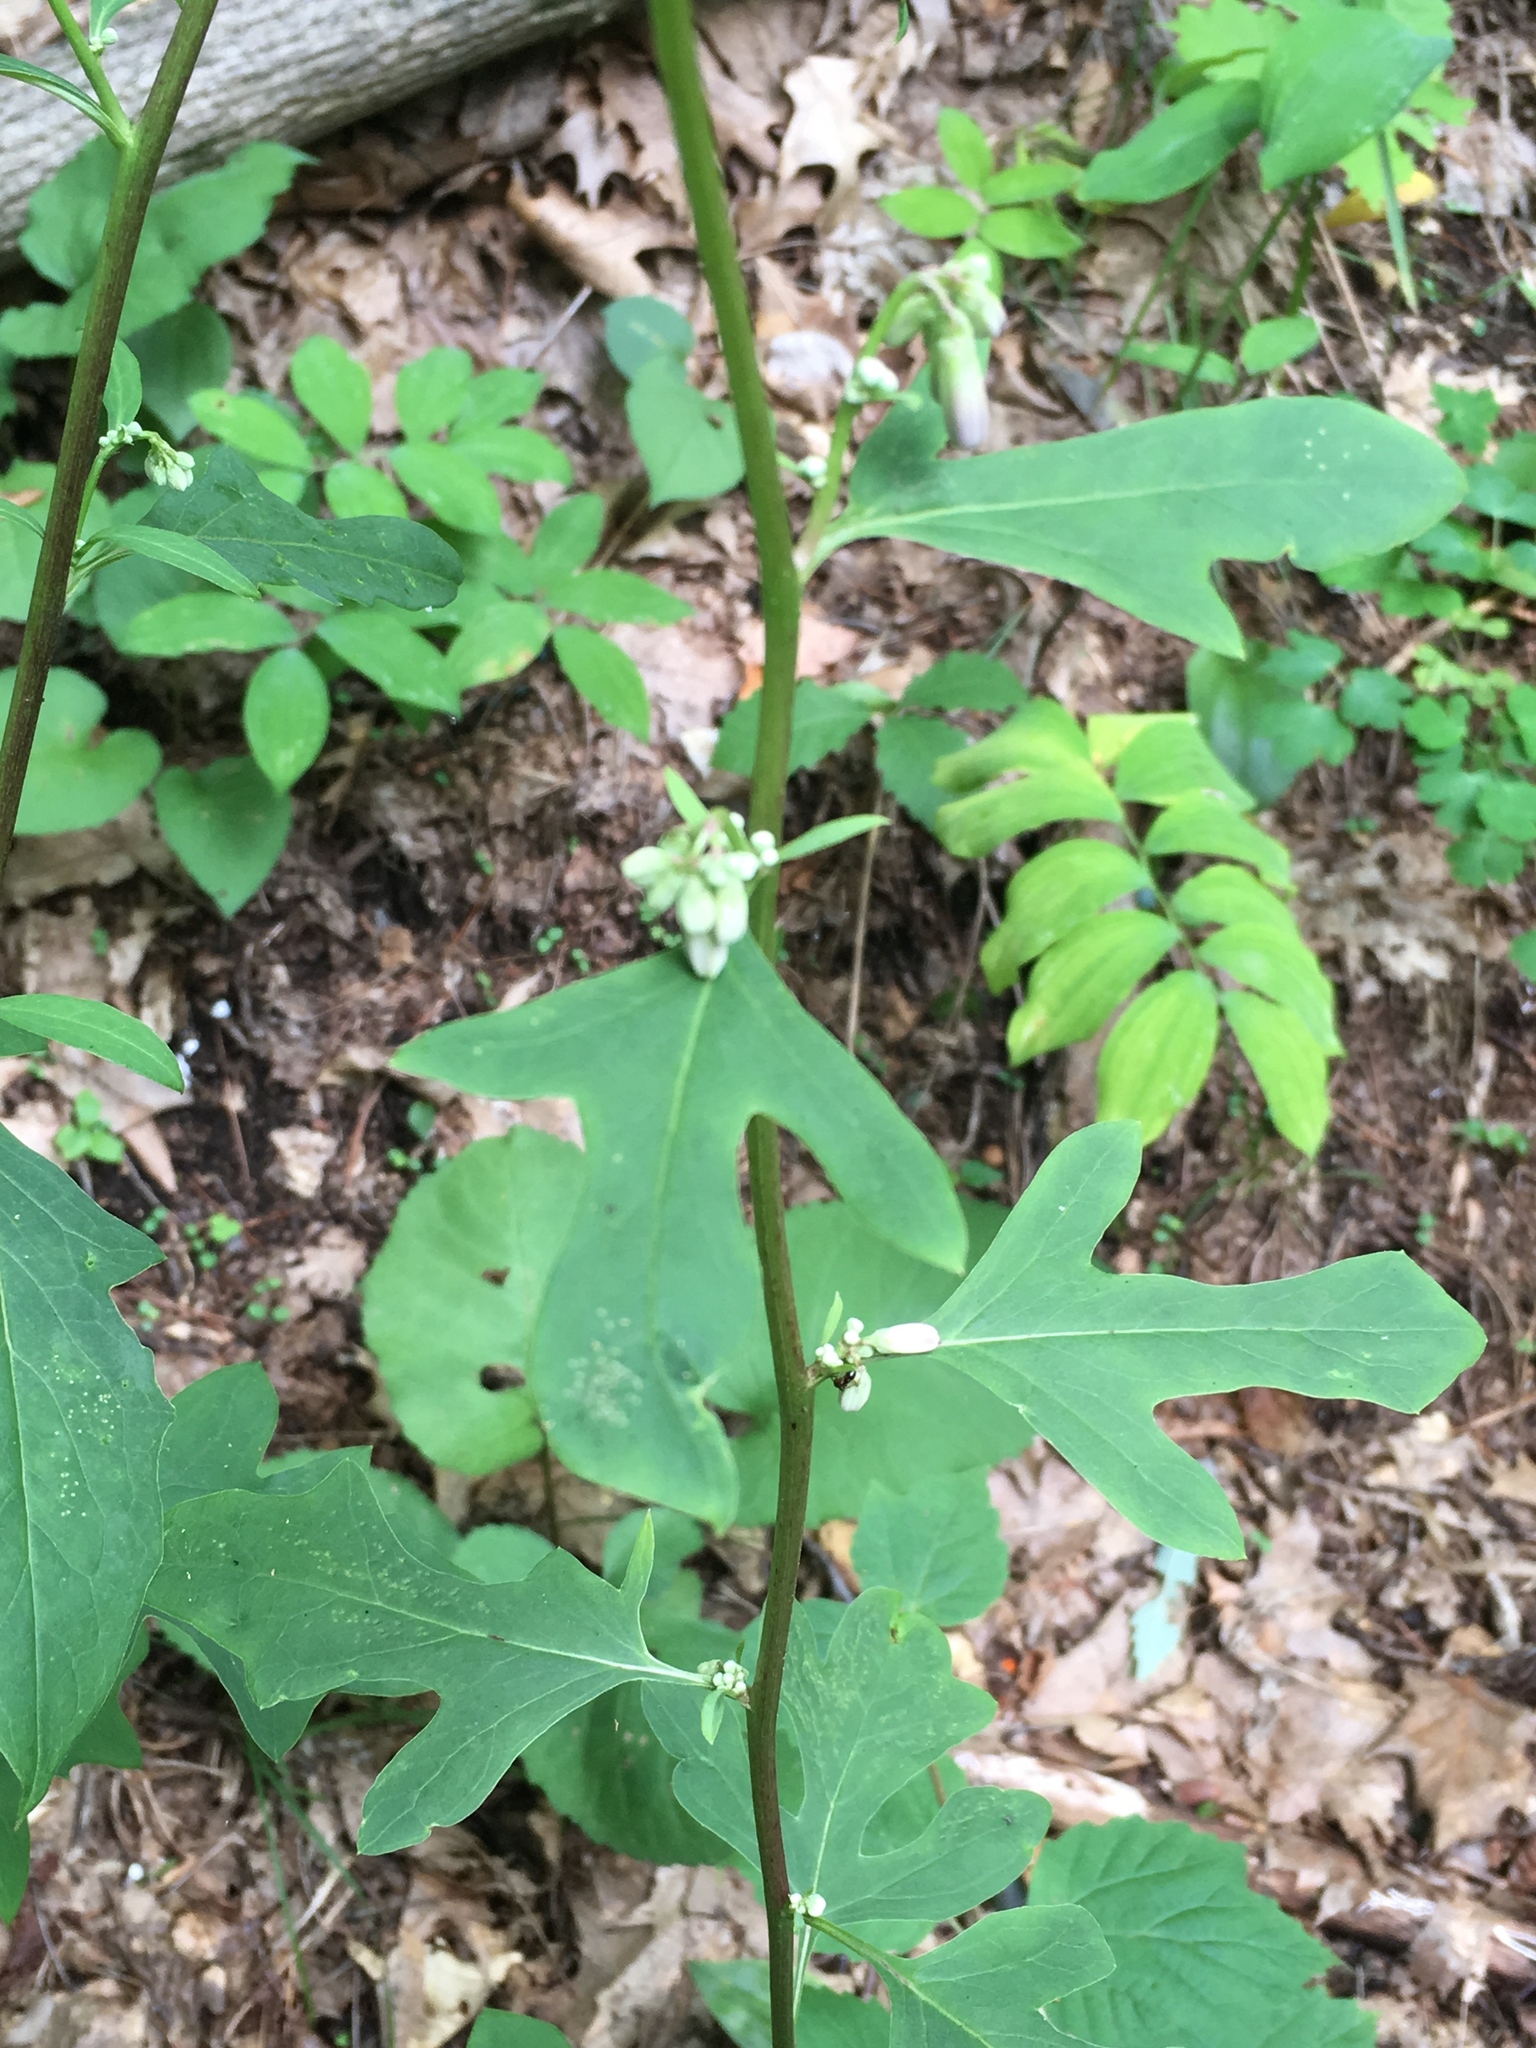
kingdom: Plantae
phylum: Tracheophyta
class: Magnoliopsida
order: Asterales
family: Asteraceae
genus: Nabalus
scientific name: Nabalus albus
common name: White rattlesnakeroot
